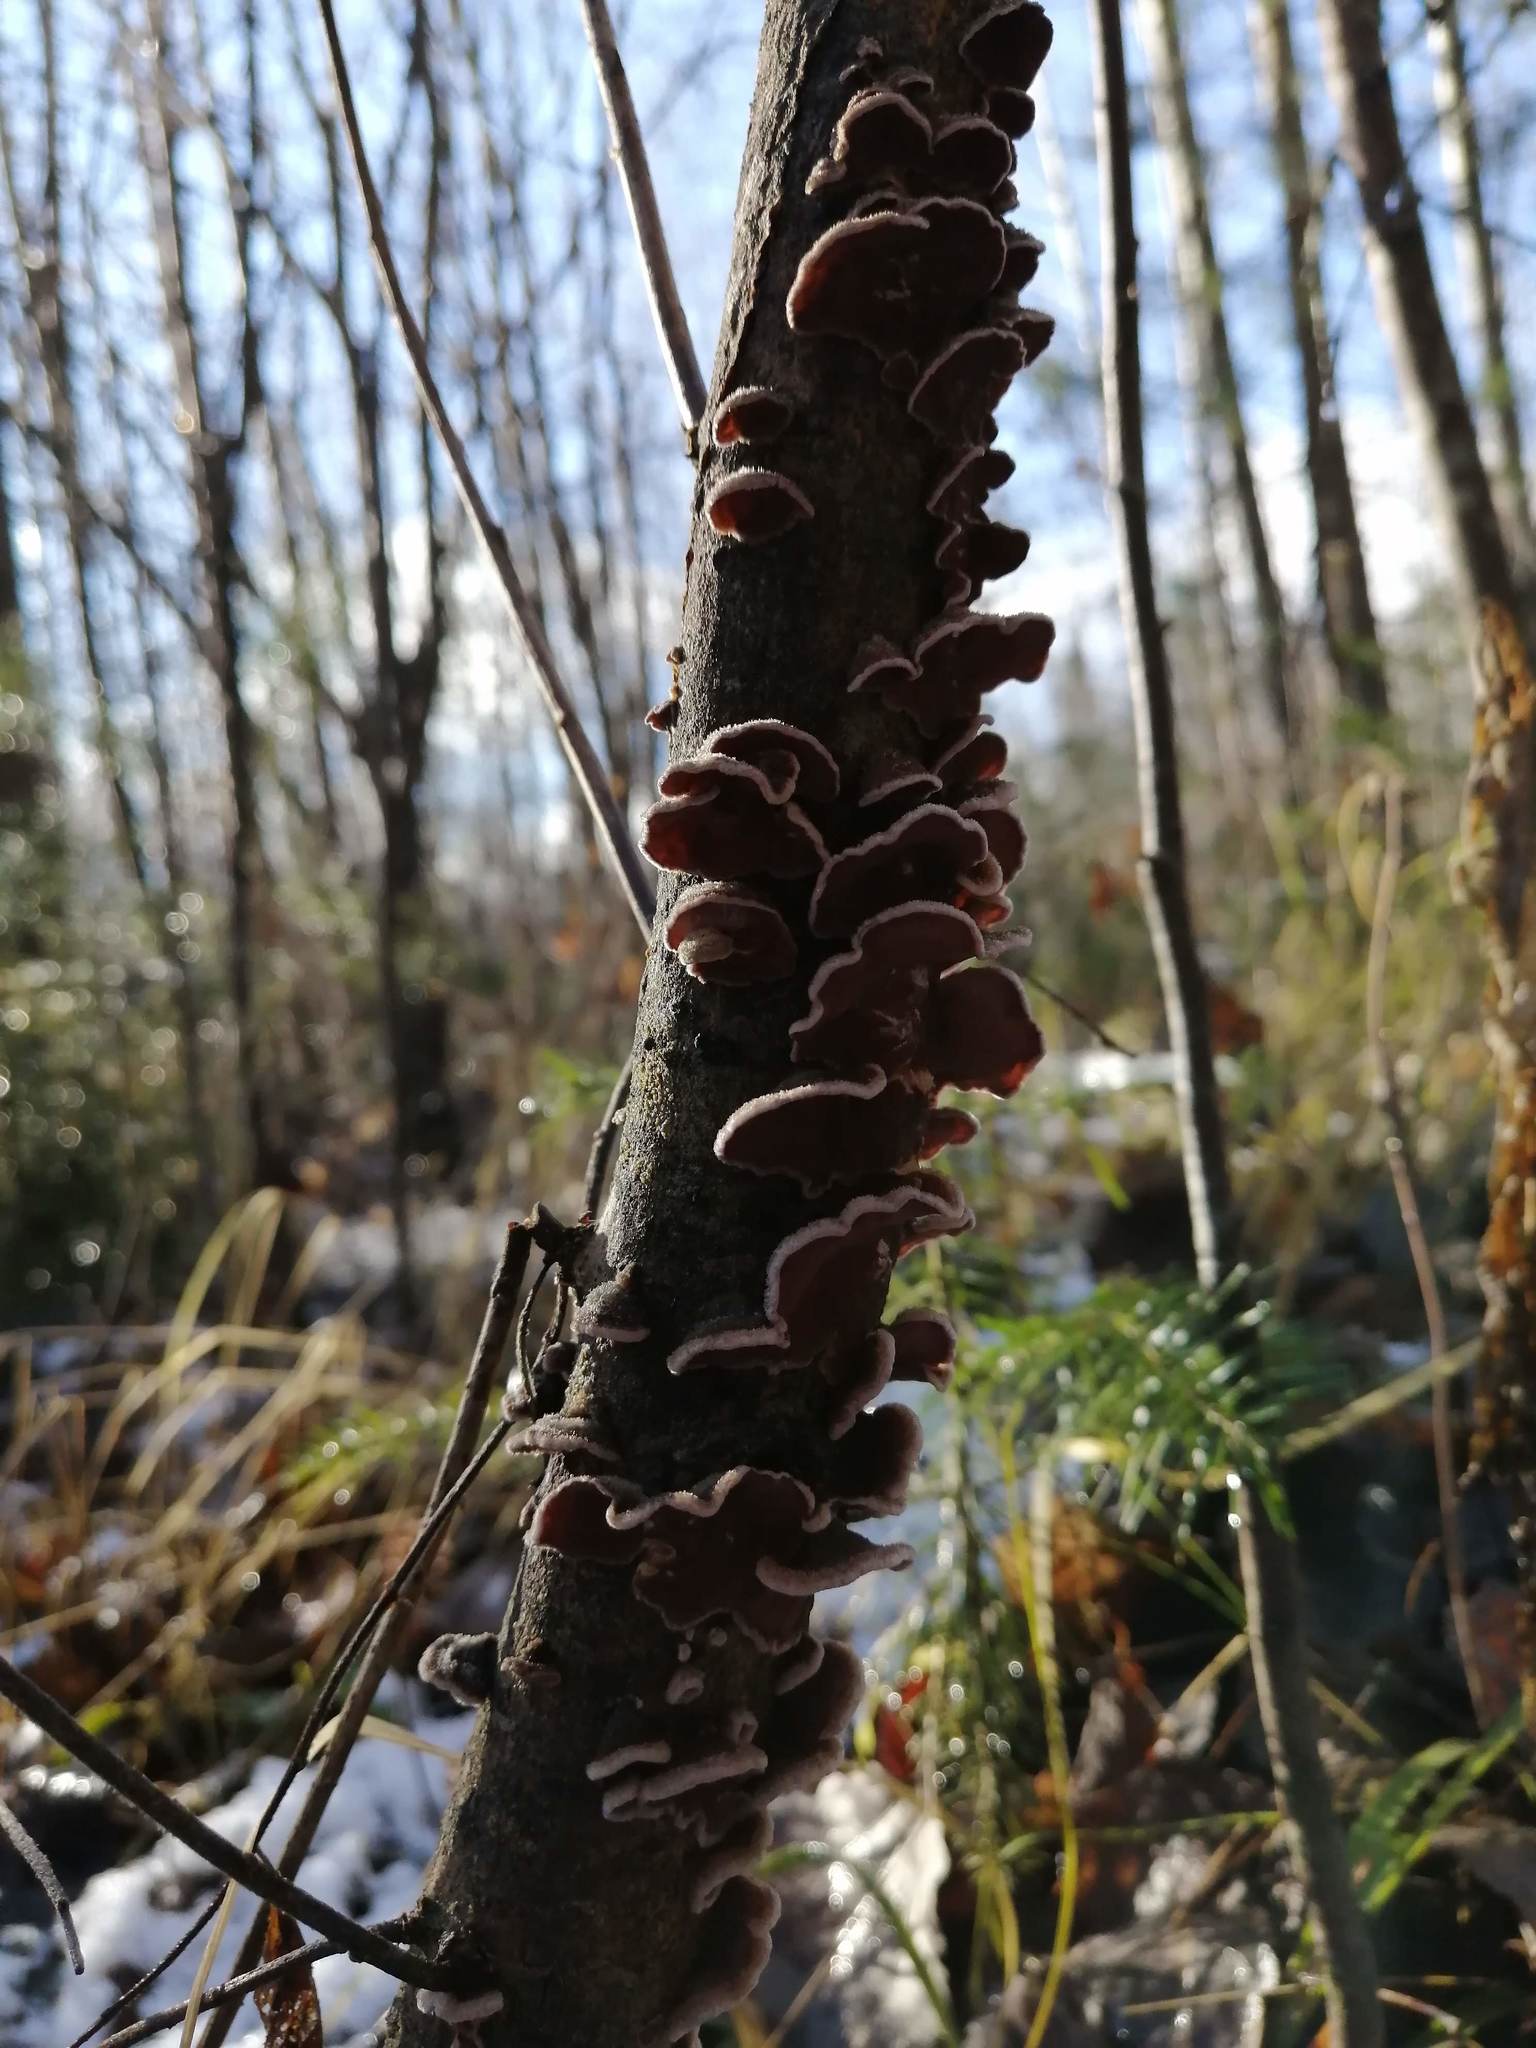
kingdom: Fungi
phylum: Basidiomycota
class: Agaricomycetes
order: Agaricales
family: Cyphellaceae
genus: Chondrostereum
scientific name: Chondrostereum purpureum
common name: Silver leaf disease
